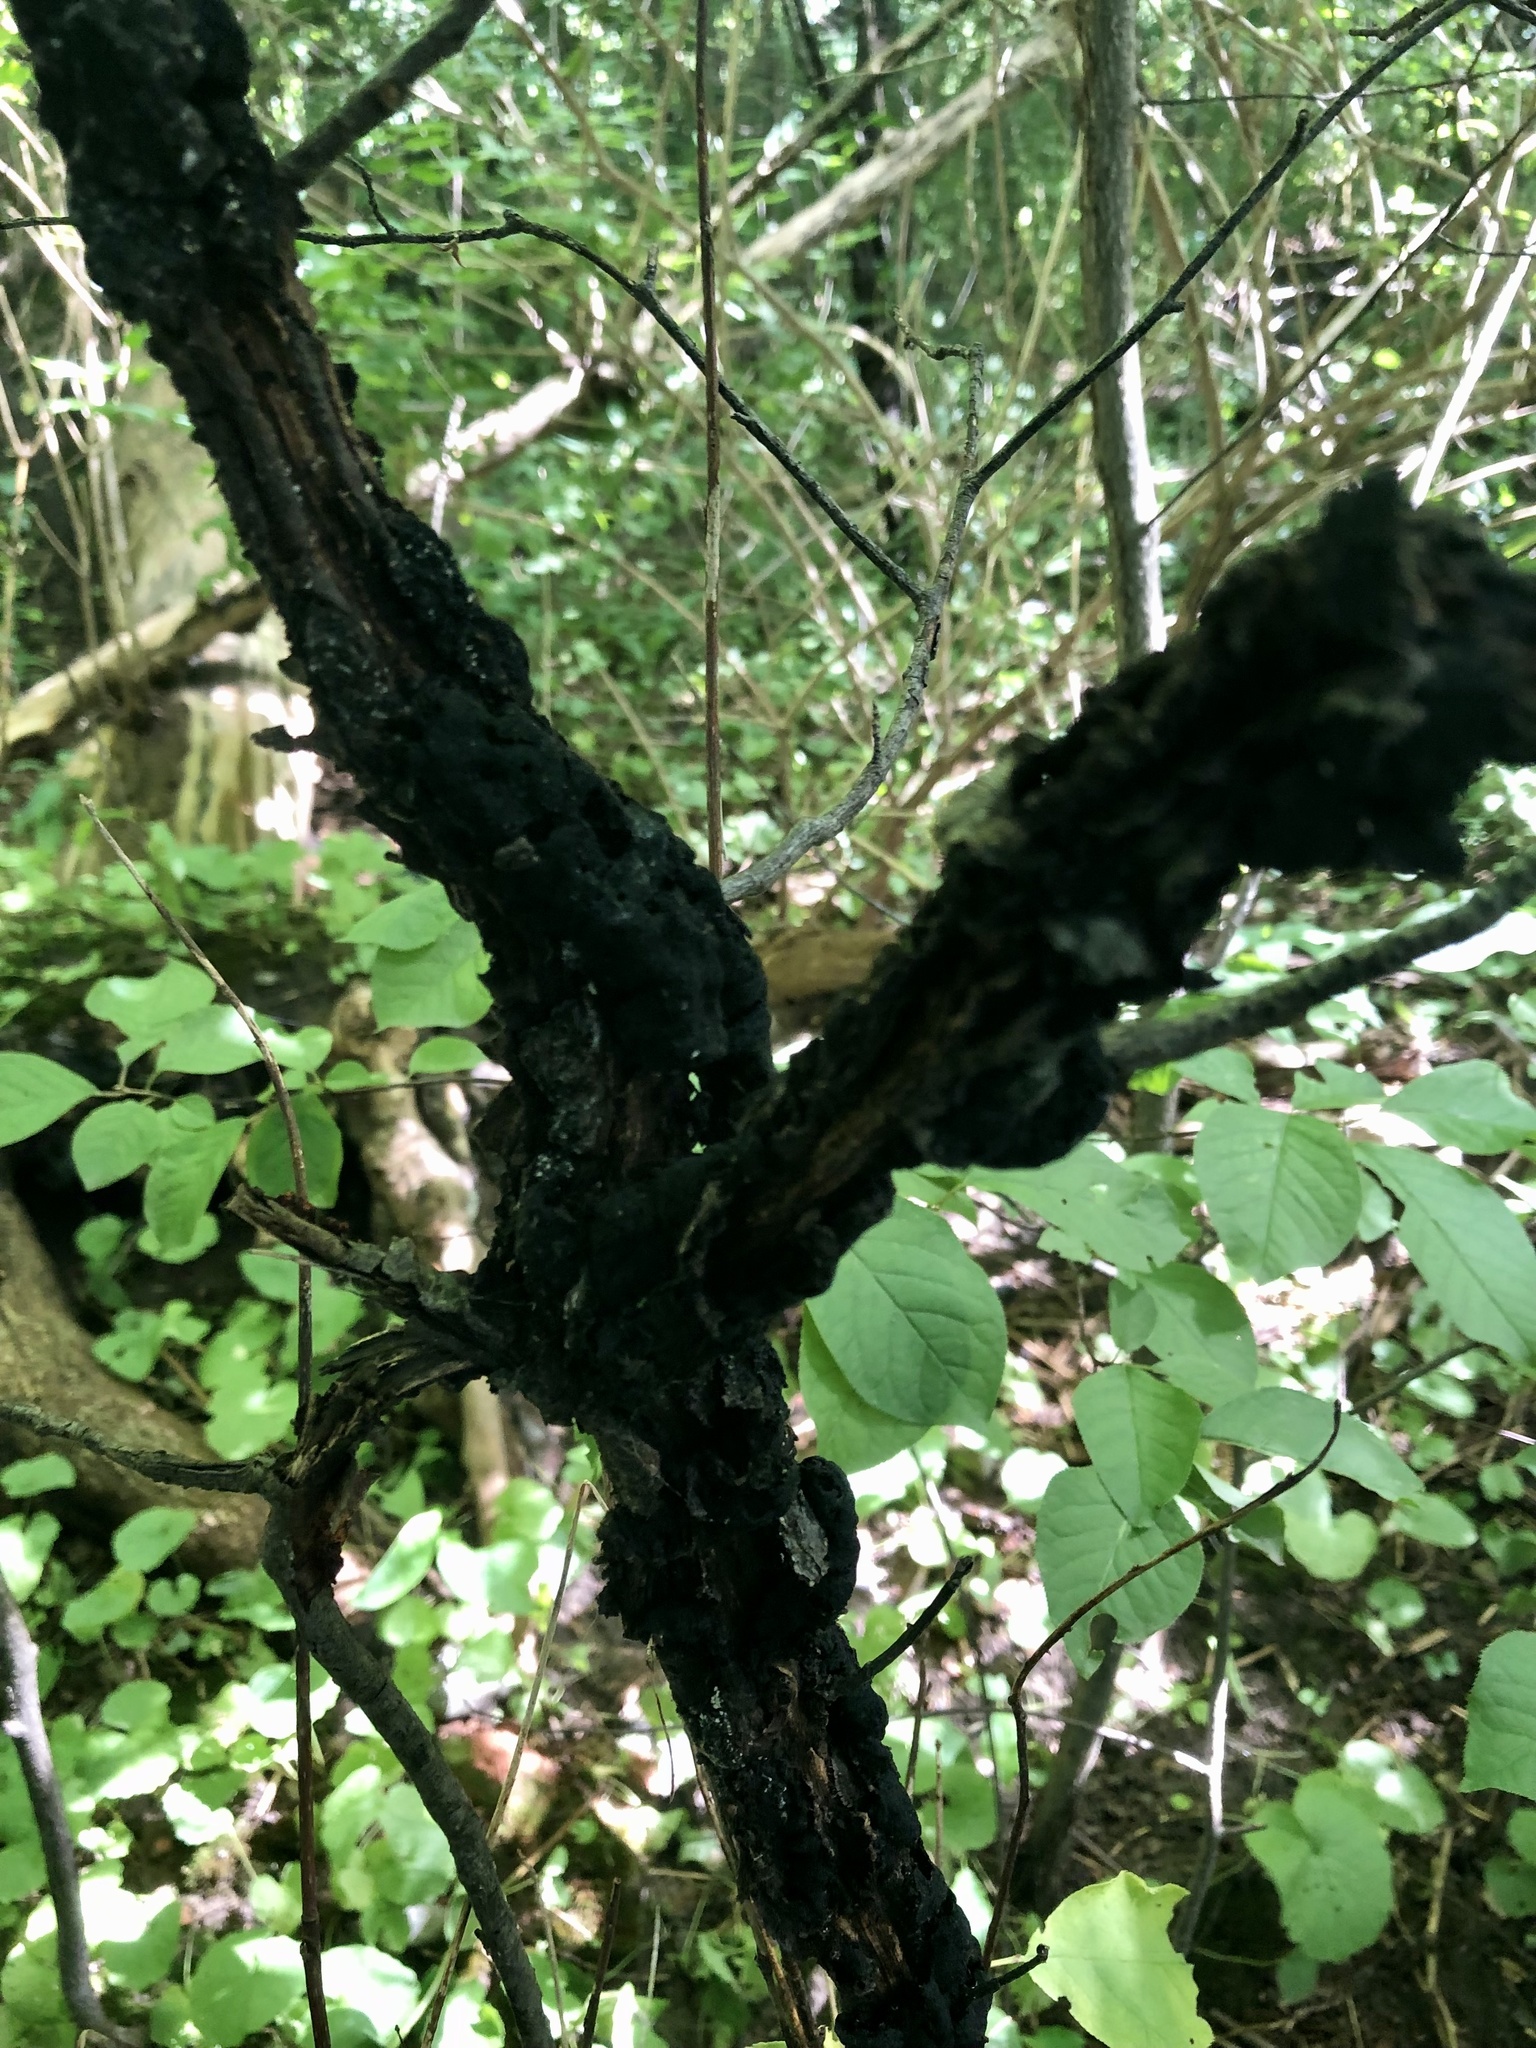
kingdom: Fungi
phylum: Ascomycota
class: Dothideomycetes
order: Venturiales
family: Venturiaceae
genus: Apiosporina
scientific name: Apiosporina morbosa
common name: Black knot
